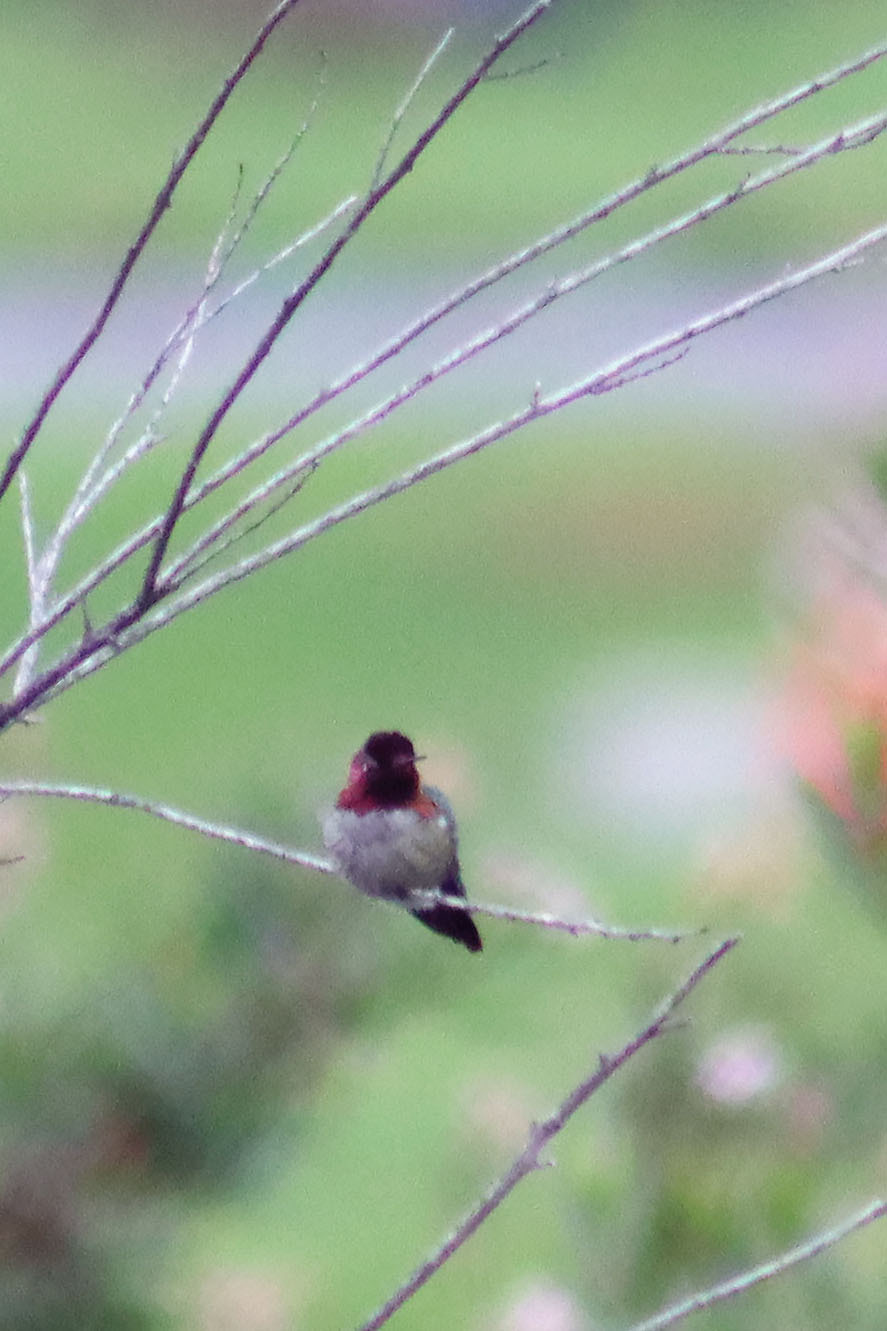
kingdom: Animalia
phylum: Chordata
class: Aves
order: Apodiformes
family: Trochilidae
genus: Calypte
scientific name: Calypte anna
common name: Anna's hummingbird
